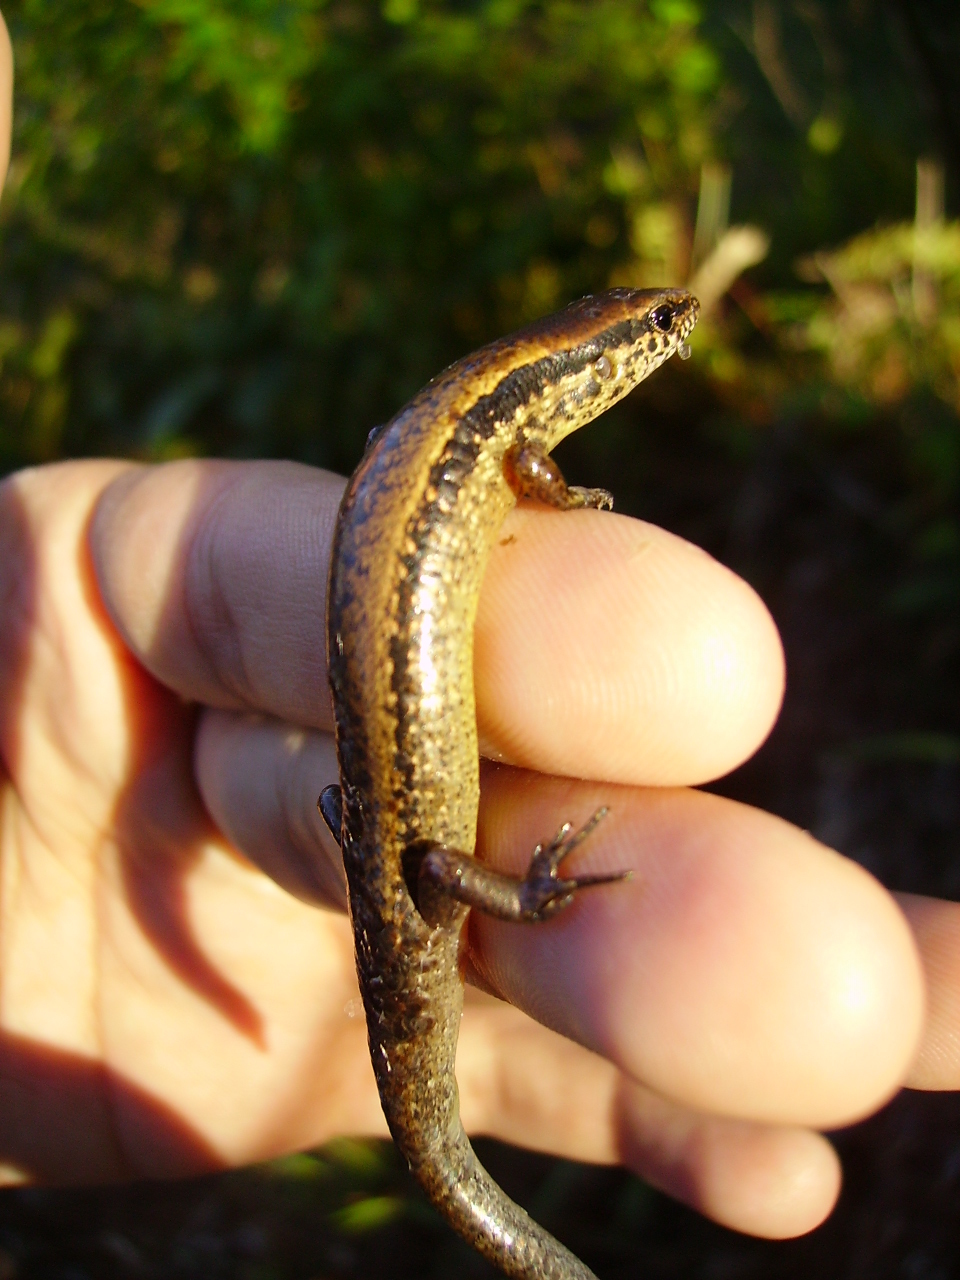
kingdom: Animalia
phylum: Chordata
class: Squamata
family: Scincidae
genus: Scincella
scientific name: Scincella cherriei
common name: Brown forest skink
